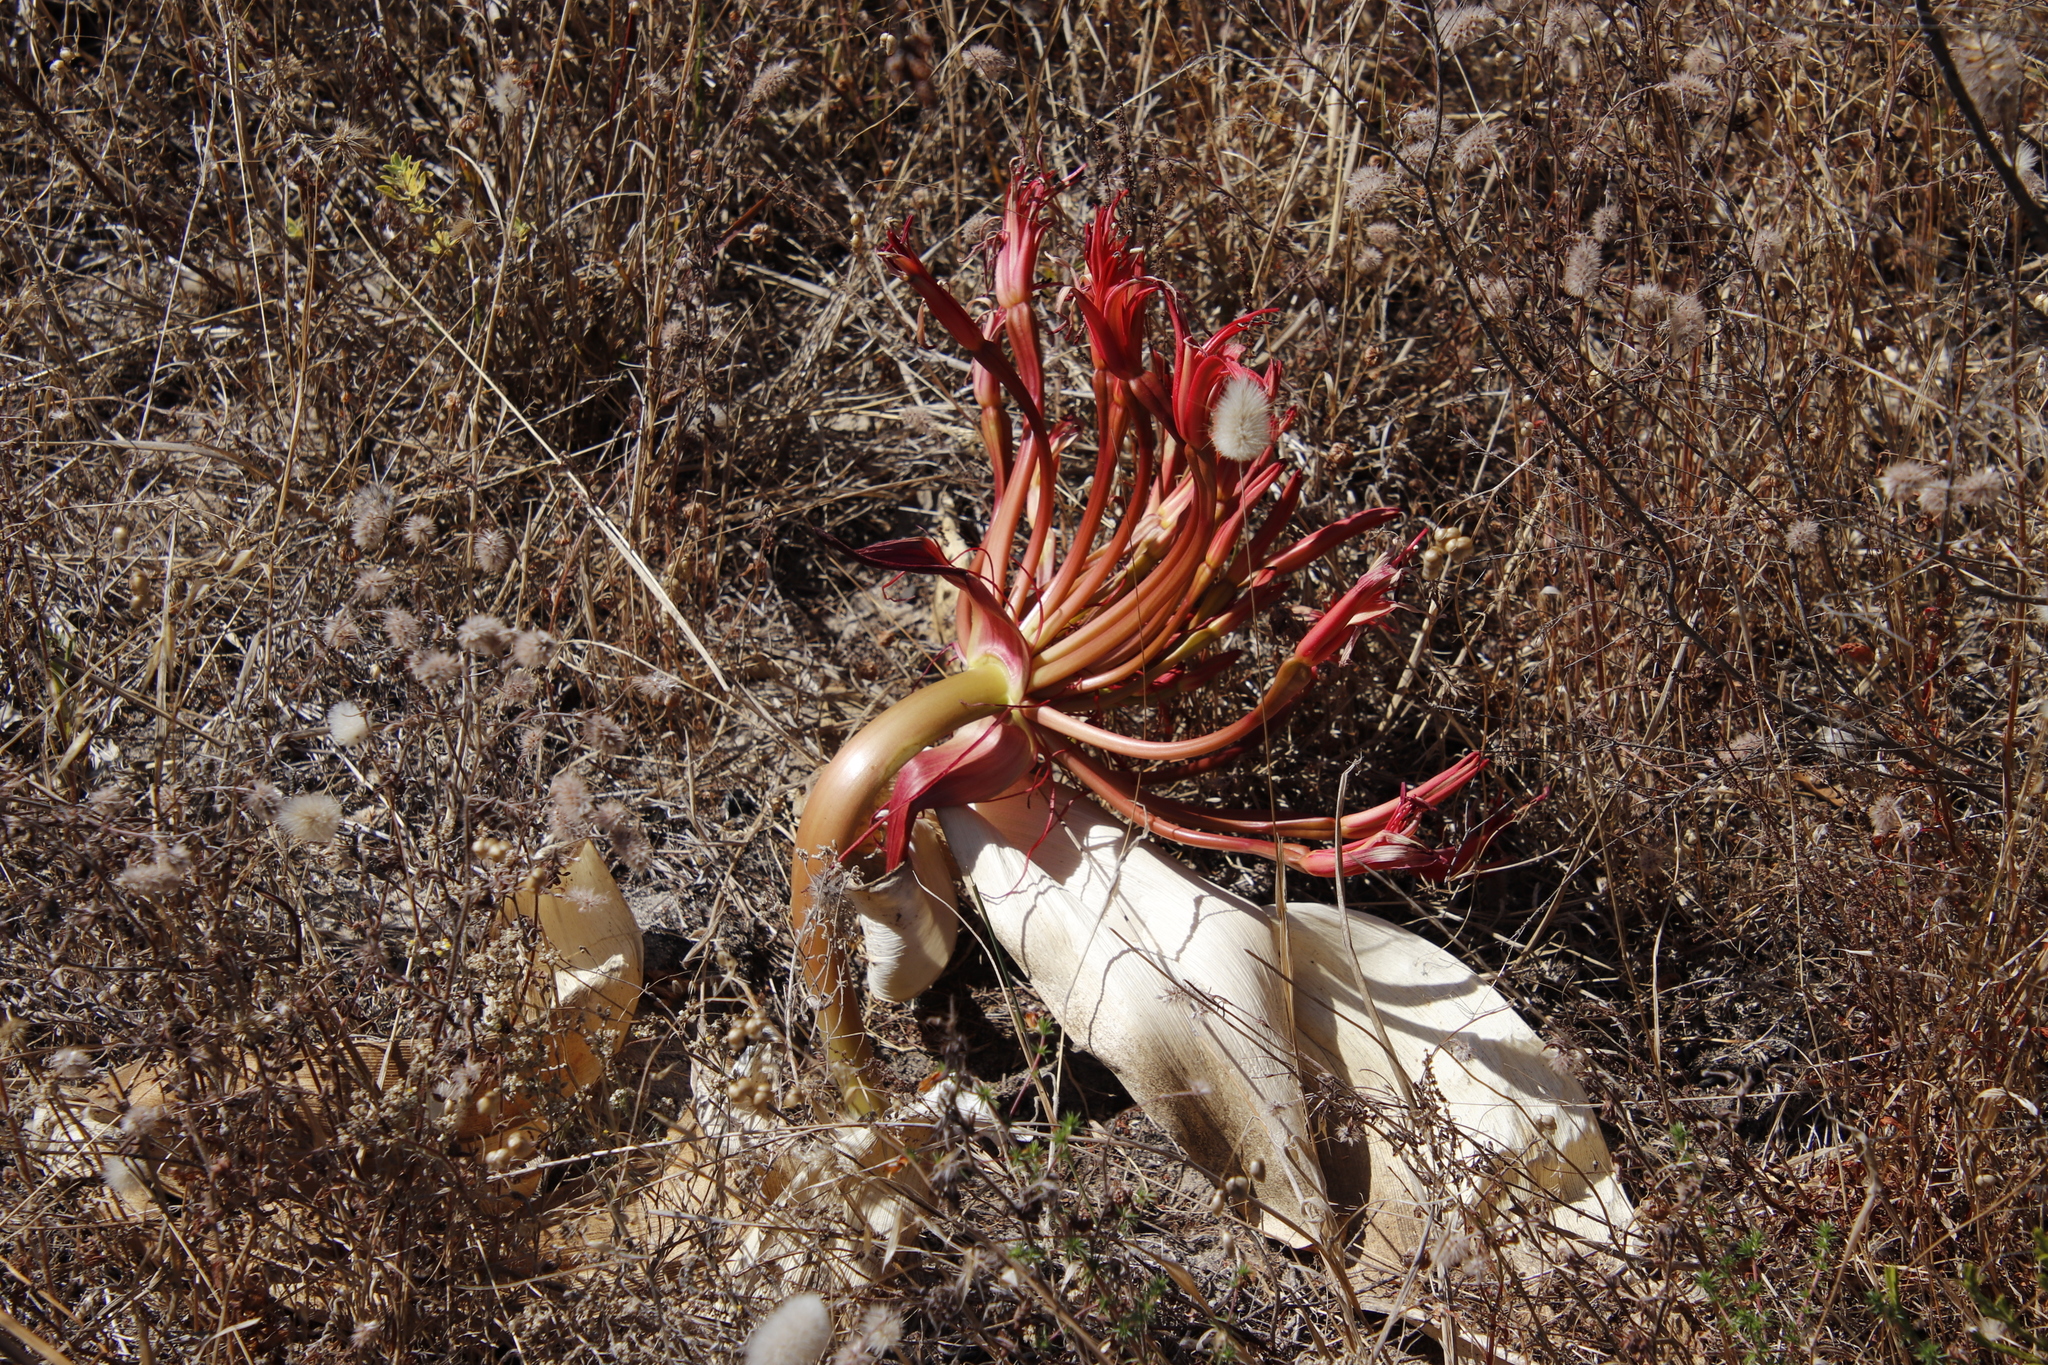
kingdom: Plantae
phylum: Tracheophyta
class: Liliopsida
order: Asparagales
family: Amaryllidaceae
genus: Brunsvigia
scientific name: Brunsvigia orientalis
